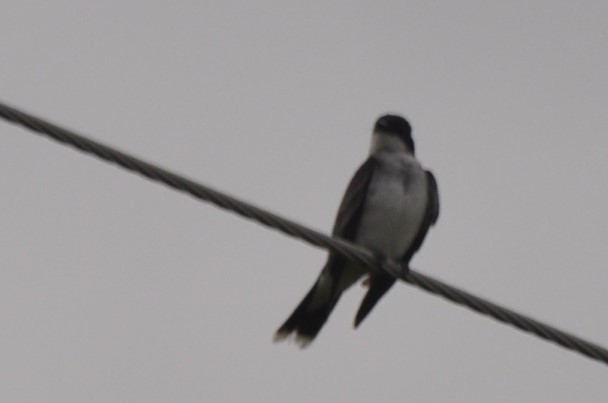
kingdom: Animalia
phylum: Chordata
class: Aves
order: Passeriformes
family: Tyrannidae
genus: Tyrannus
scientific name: Tyrannus tyrannus
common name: Eastern kingbird
